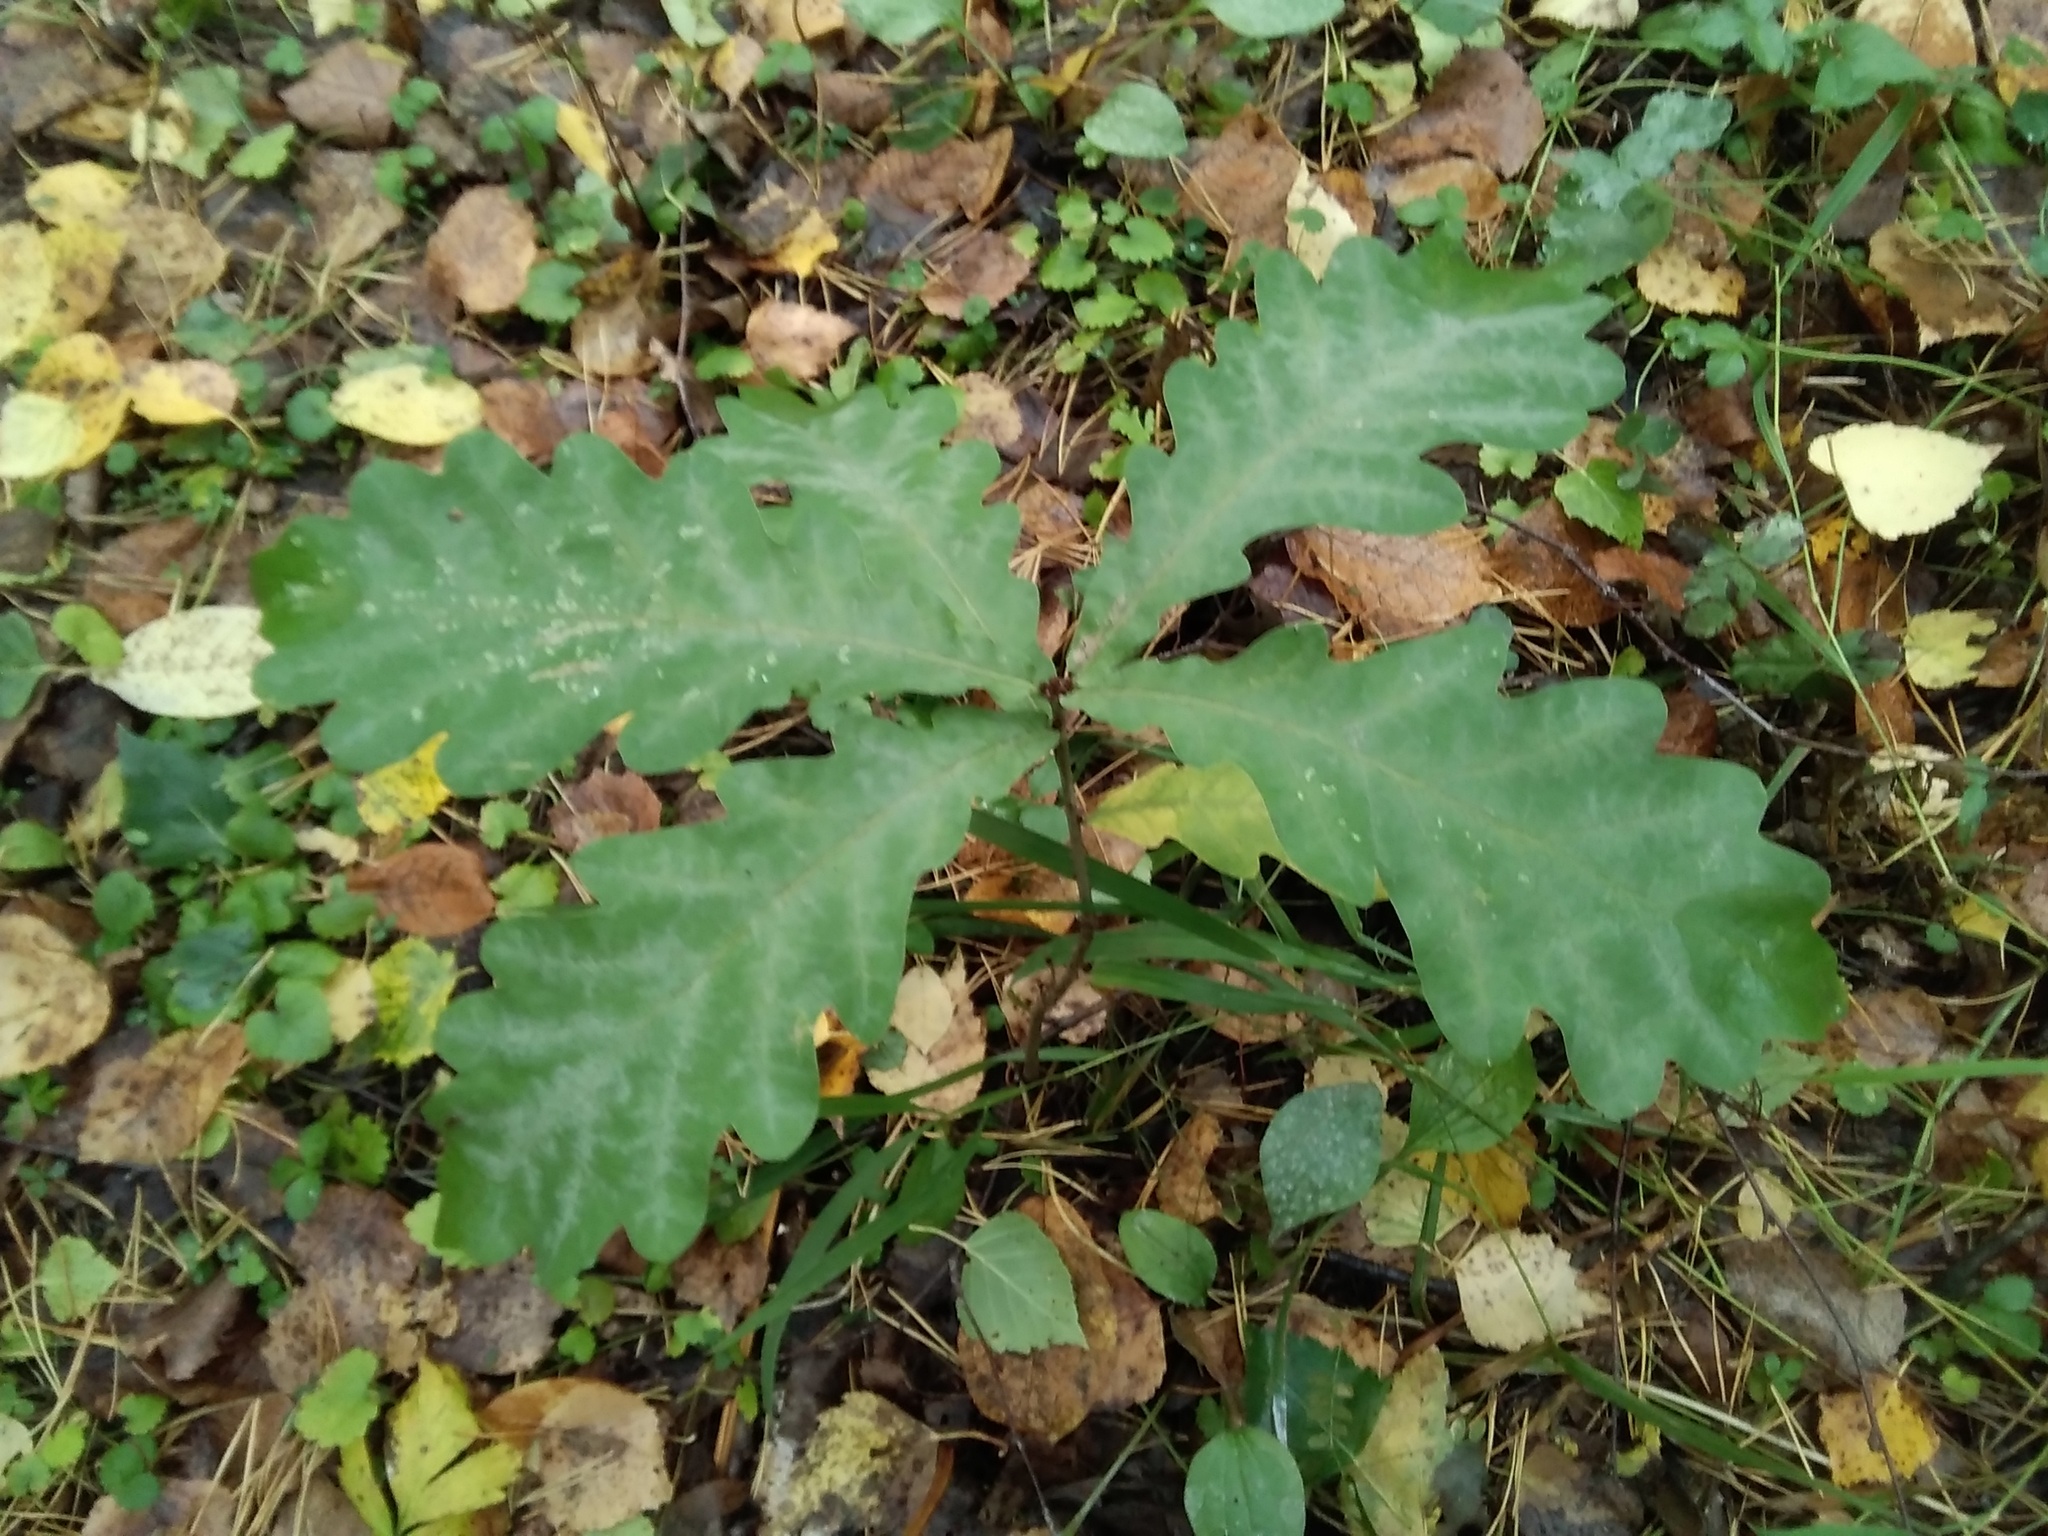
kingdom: Plantae
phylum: Tracheophyta
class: Magnoliopsida
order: Fagales
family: Fagaceae
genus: Quercus
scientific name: Quercus robur
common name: Pedunculate oak
